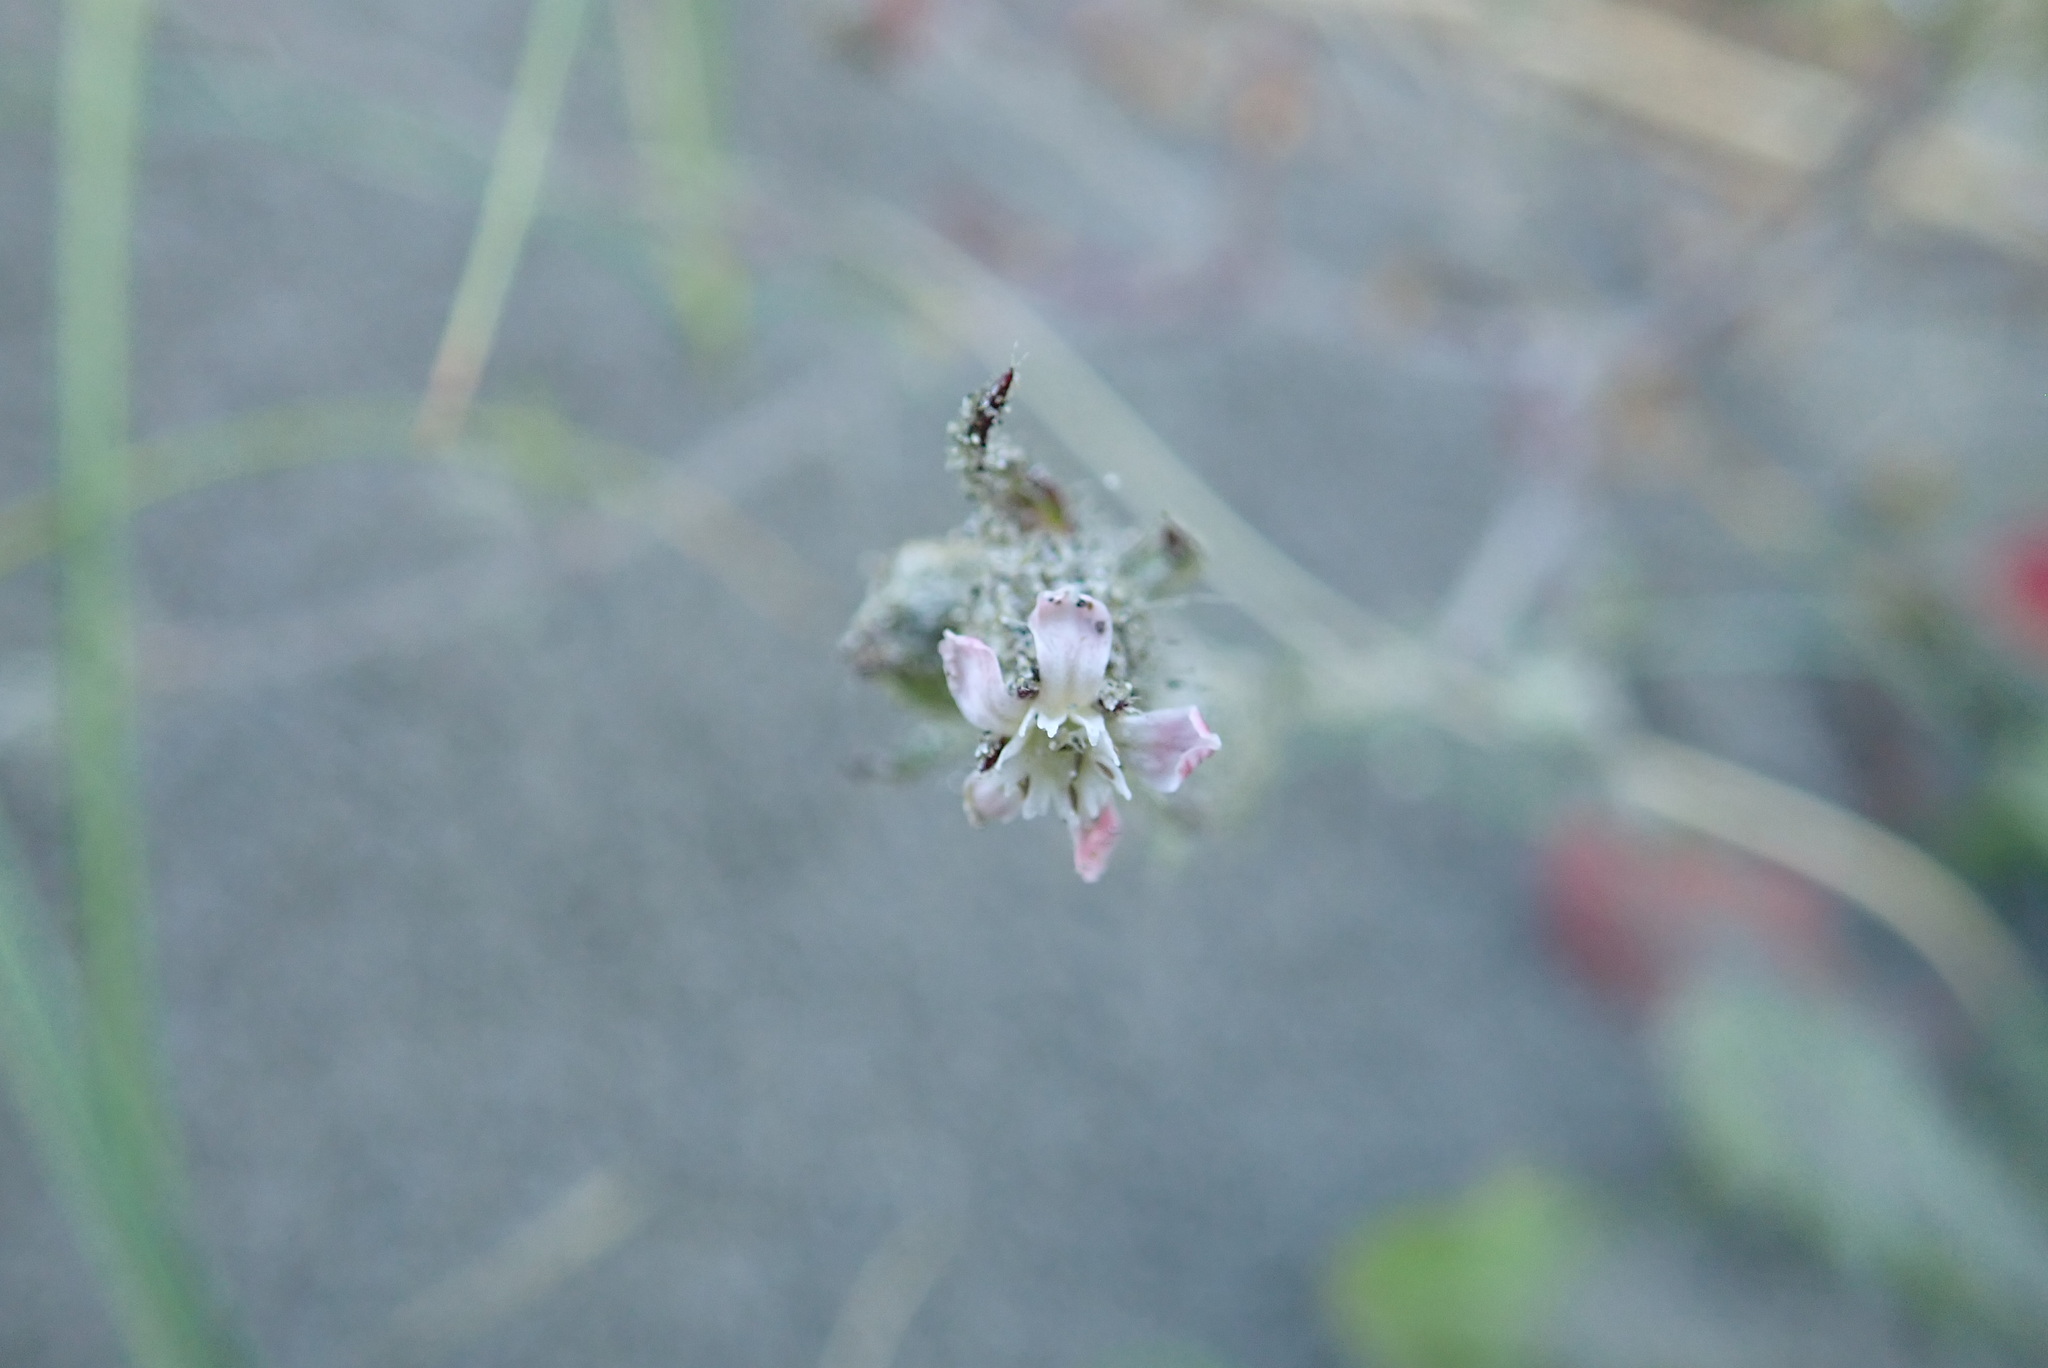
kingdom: Plantae
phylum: Tracheophyta
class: Magnoliopsida
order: Caryophyllales
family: Caryophyllaceae
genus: Silene
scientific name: Silene gallica
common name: Small-flowered catchfly
